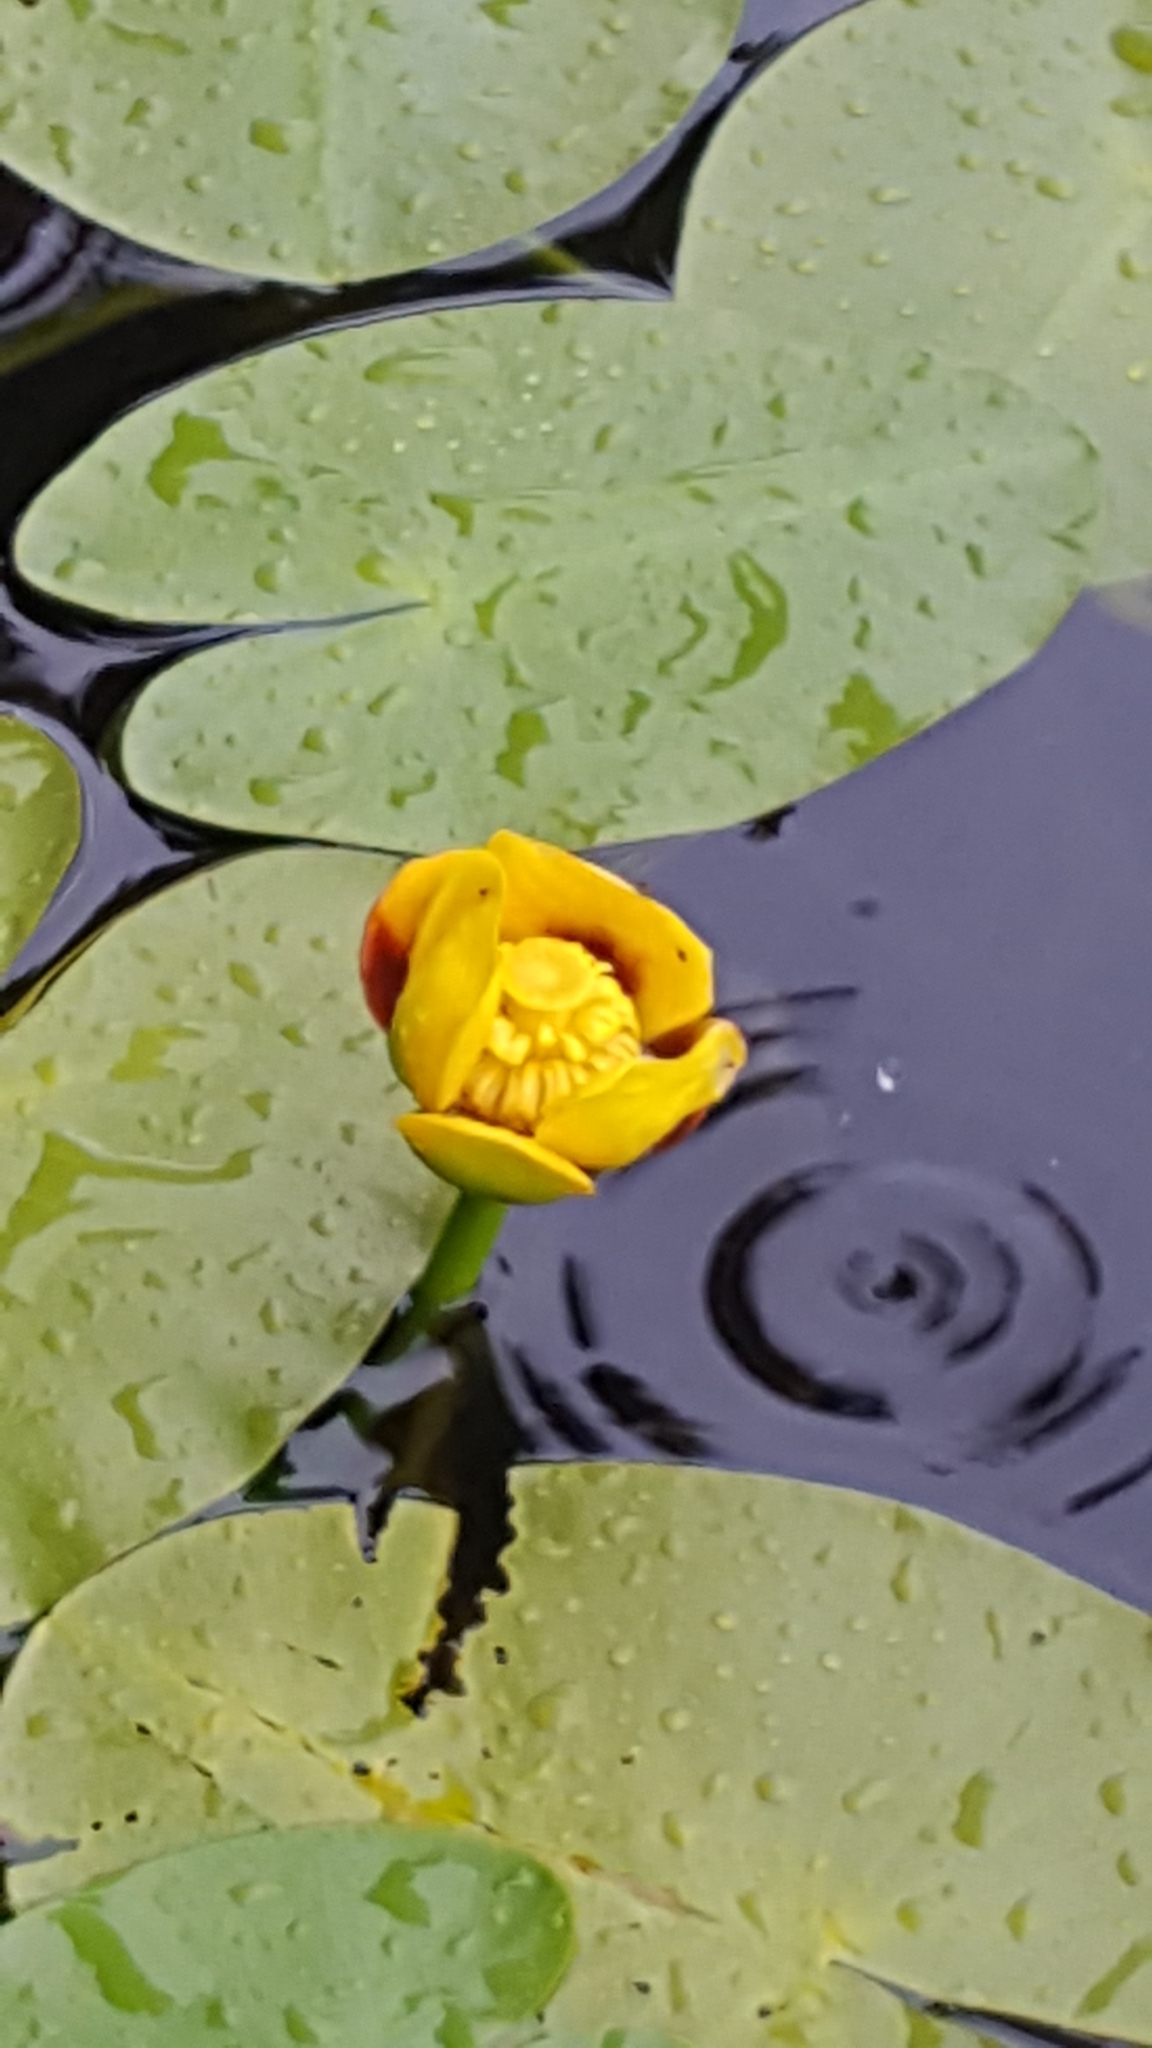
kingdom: Plantae
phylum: Tracheophyta
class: Magnoliopsida
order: Nymphaeales
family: Nymphaeaceae
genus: Nuphar
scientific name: Nuphar variegata
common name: Beaver-root
